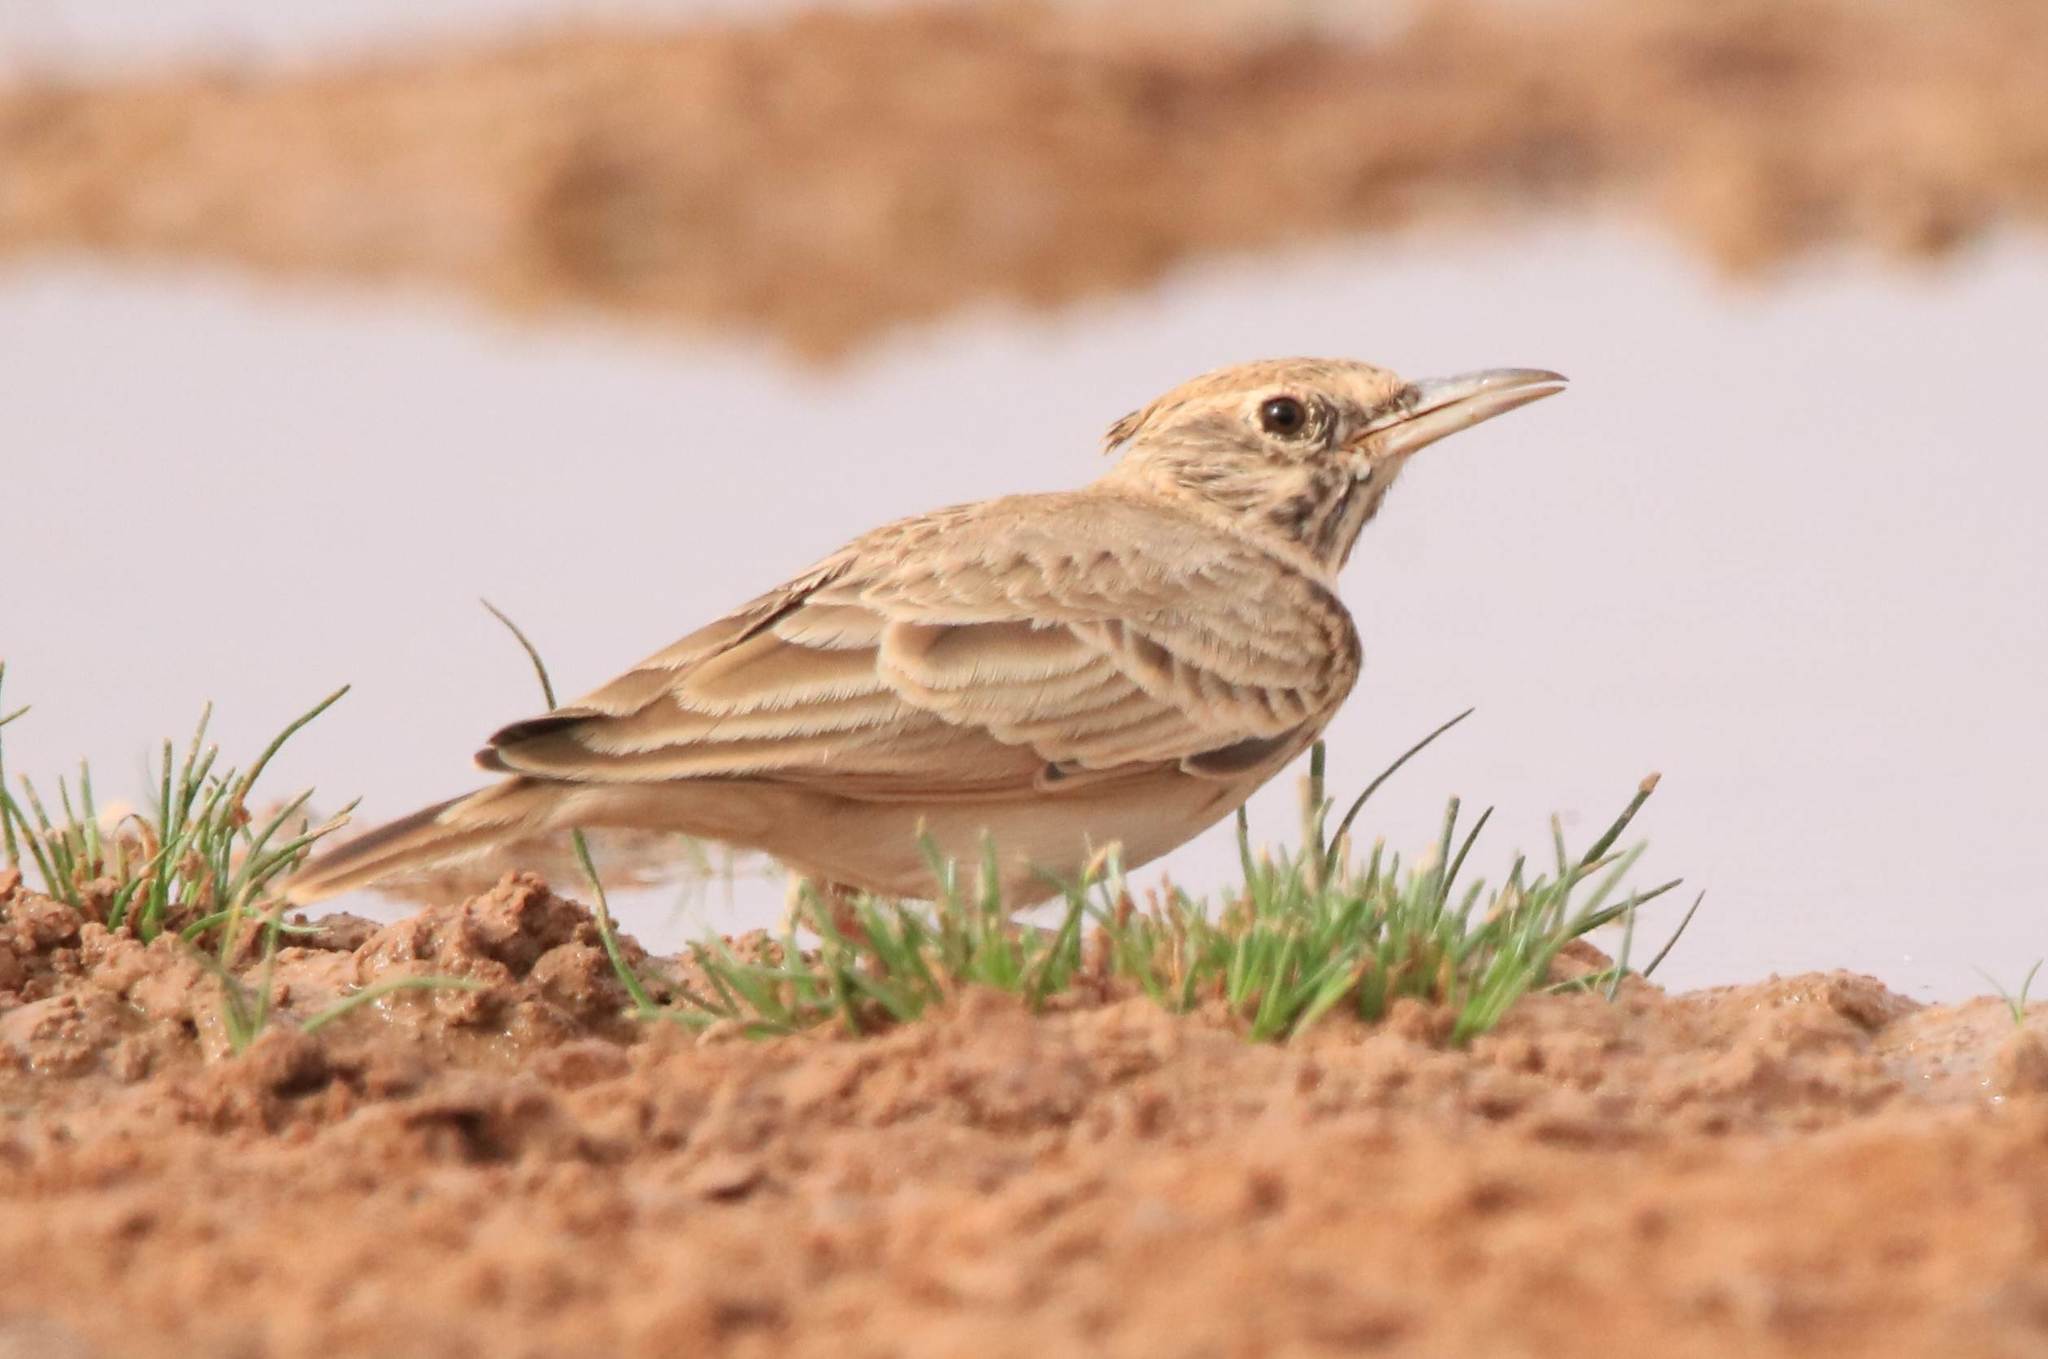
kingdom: Animalia
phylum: Chordata
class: Aves
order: Passeriformes
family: Alaudidae
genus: Galerida
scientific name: Galerida cristata
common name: Crested lark
